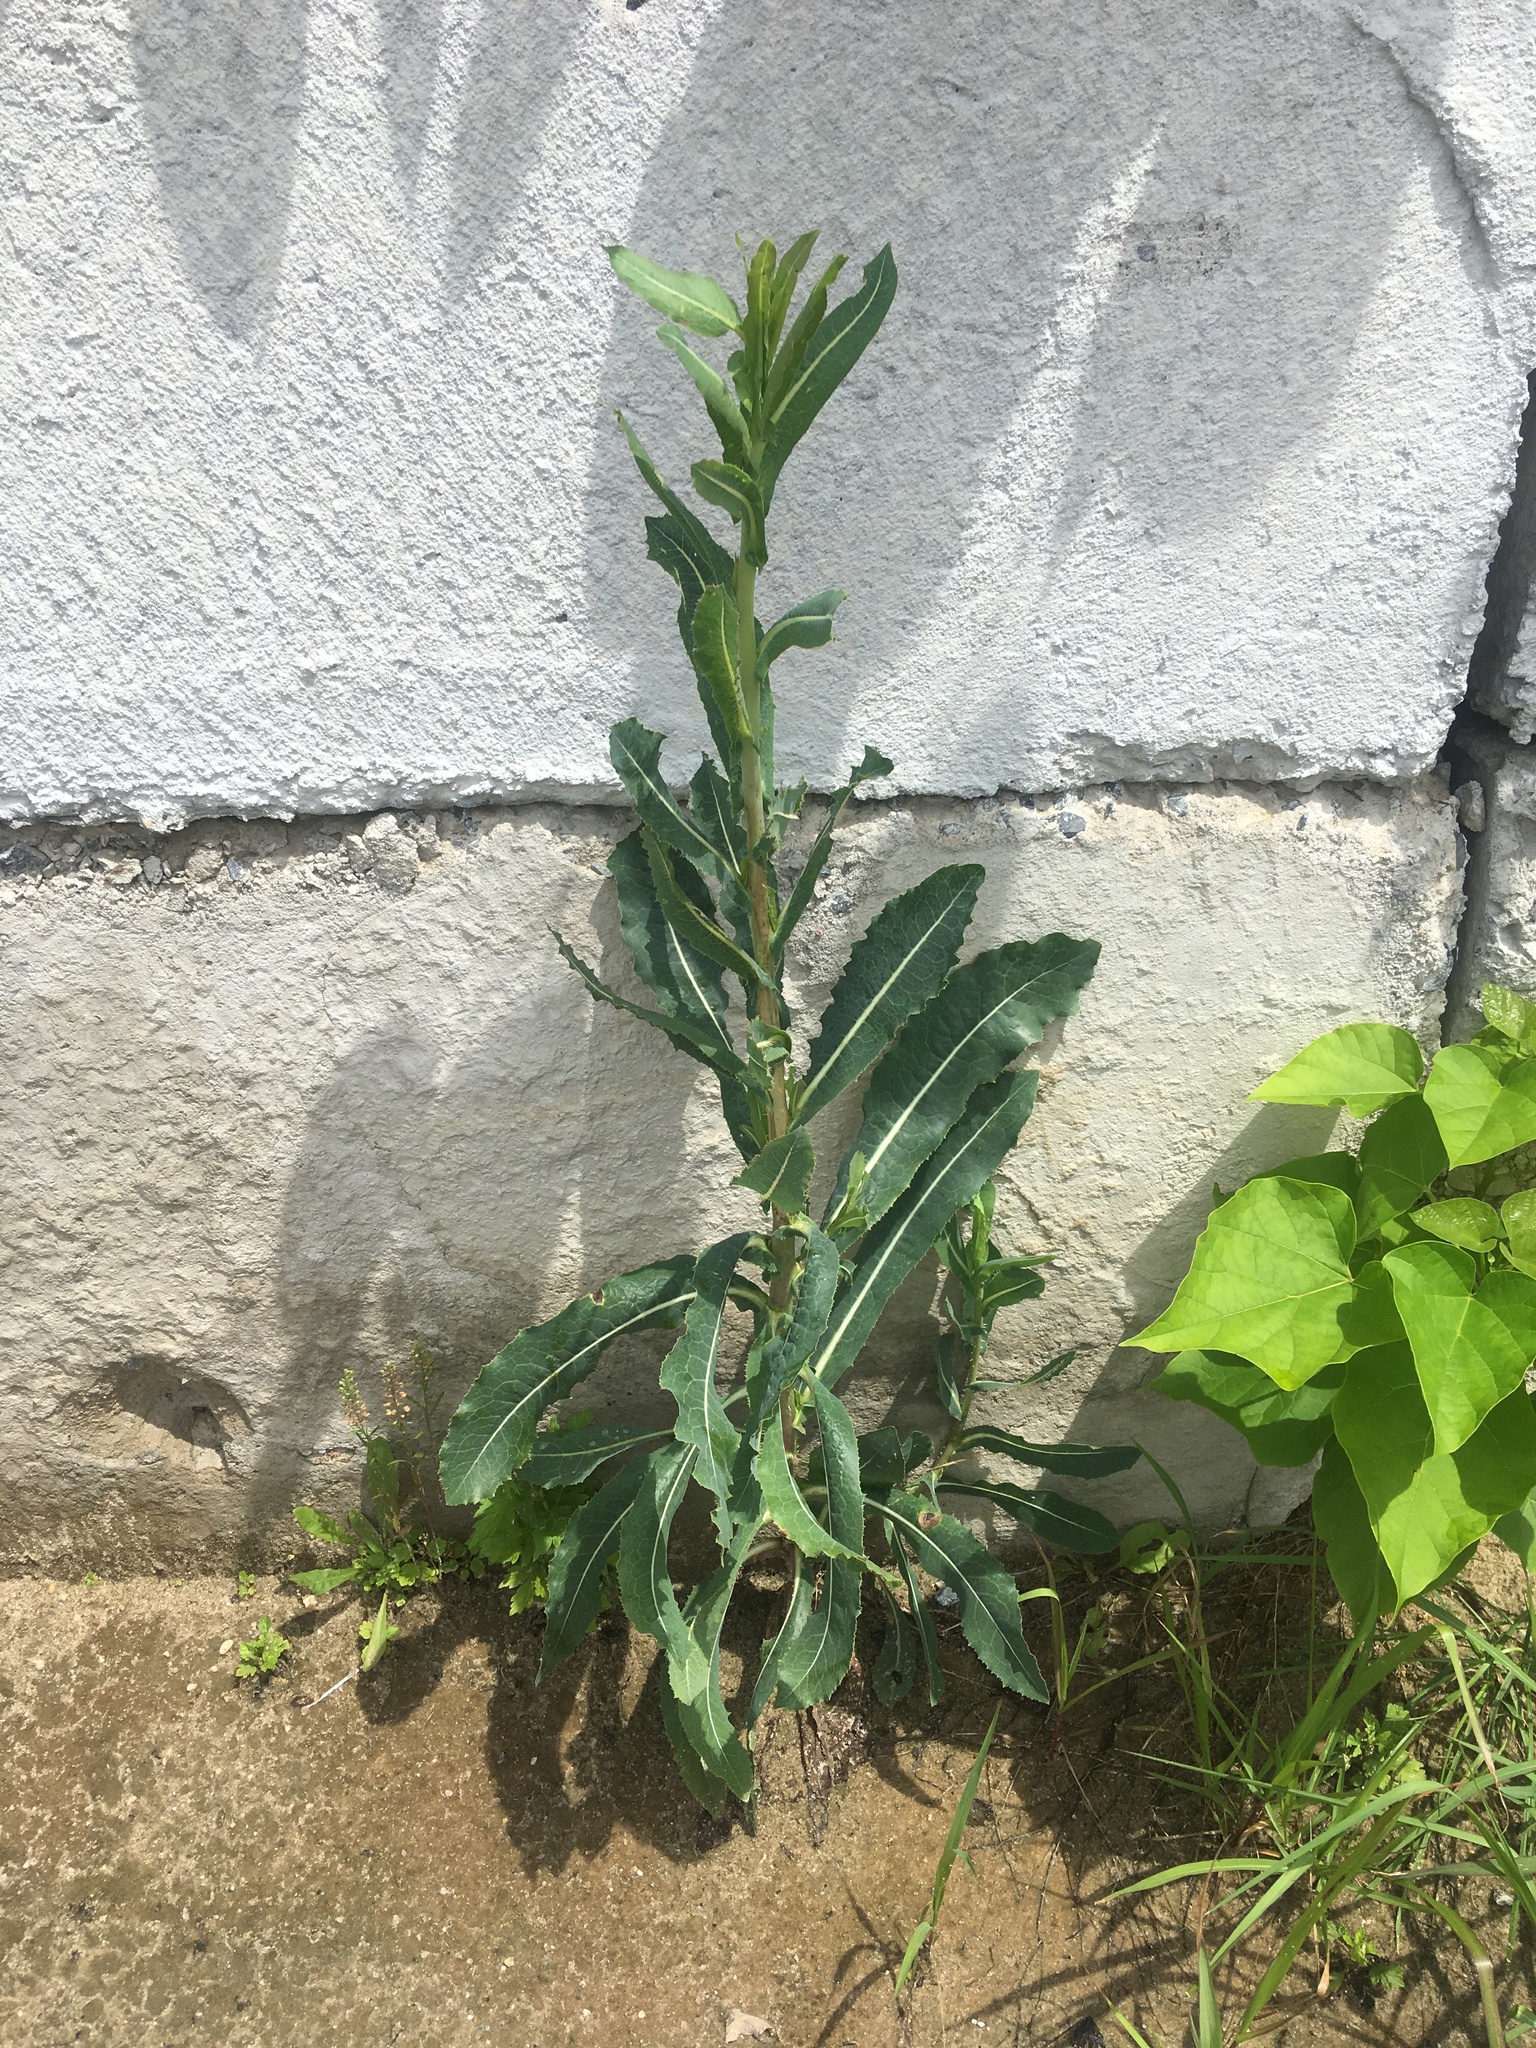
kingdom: Plantae
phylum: Tracheophyta
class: Magnoliopsida
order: Asterales
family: Asteraceae
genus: Lactuca
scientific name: Lactuca serriola
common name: Prickly lettuce
